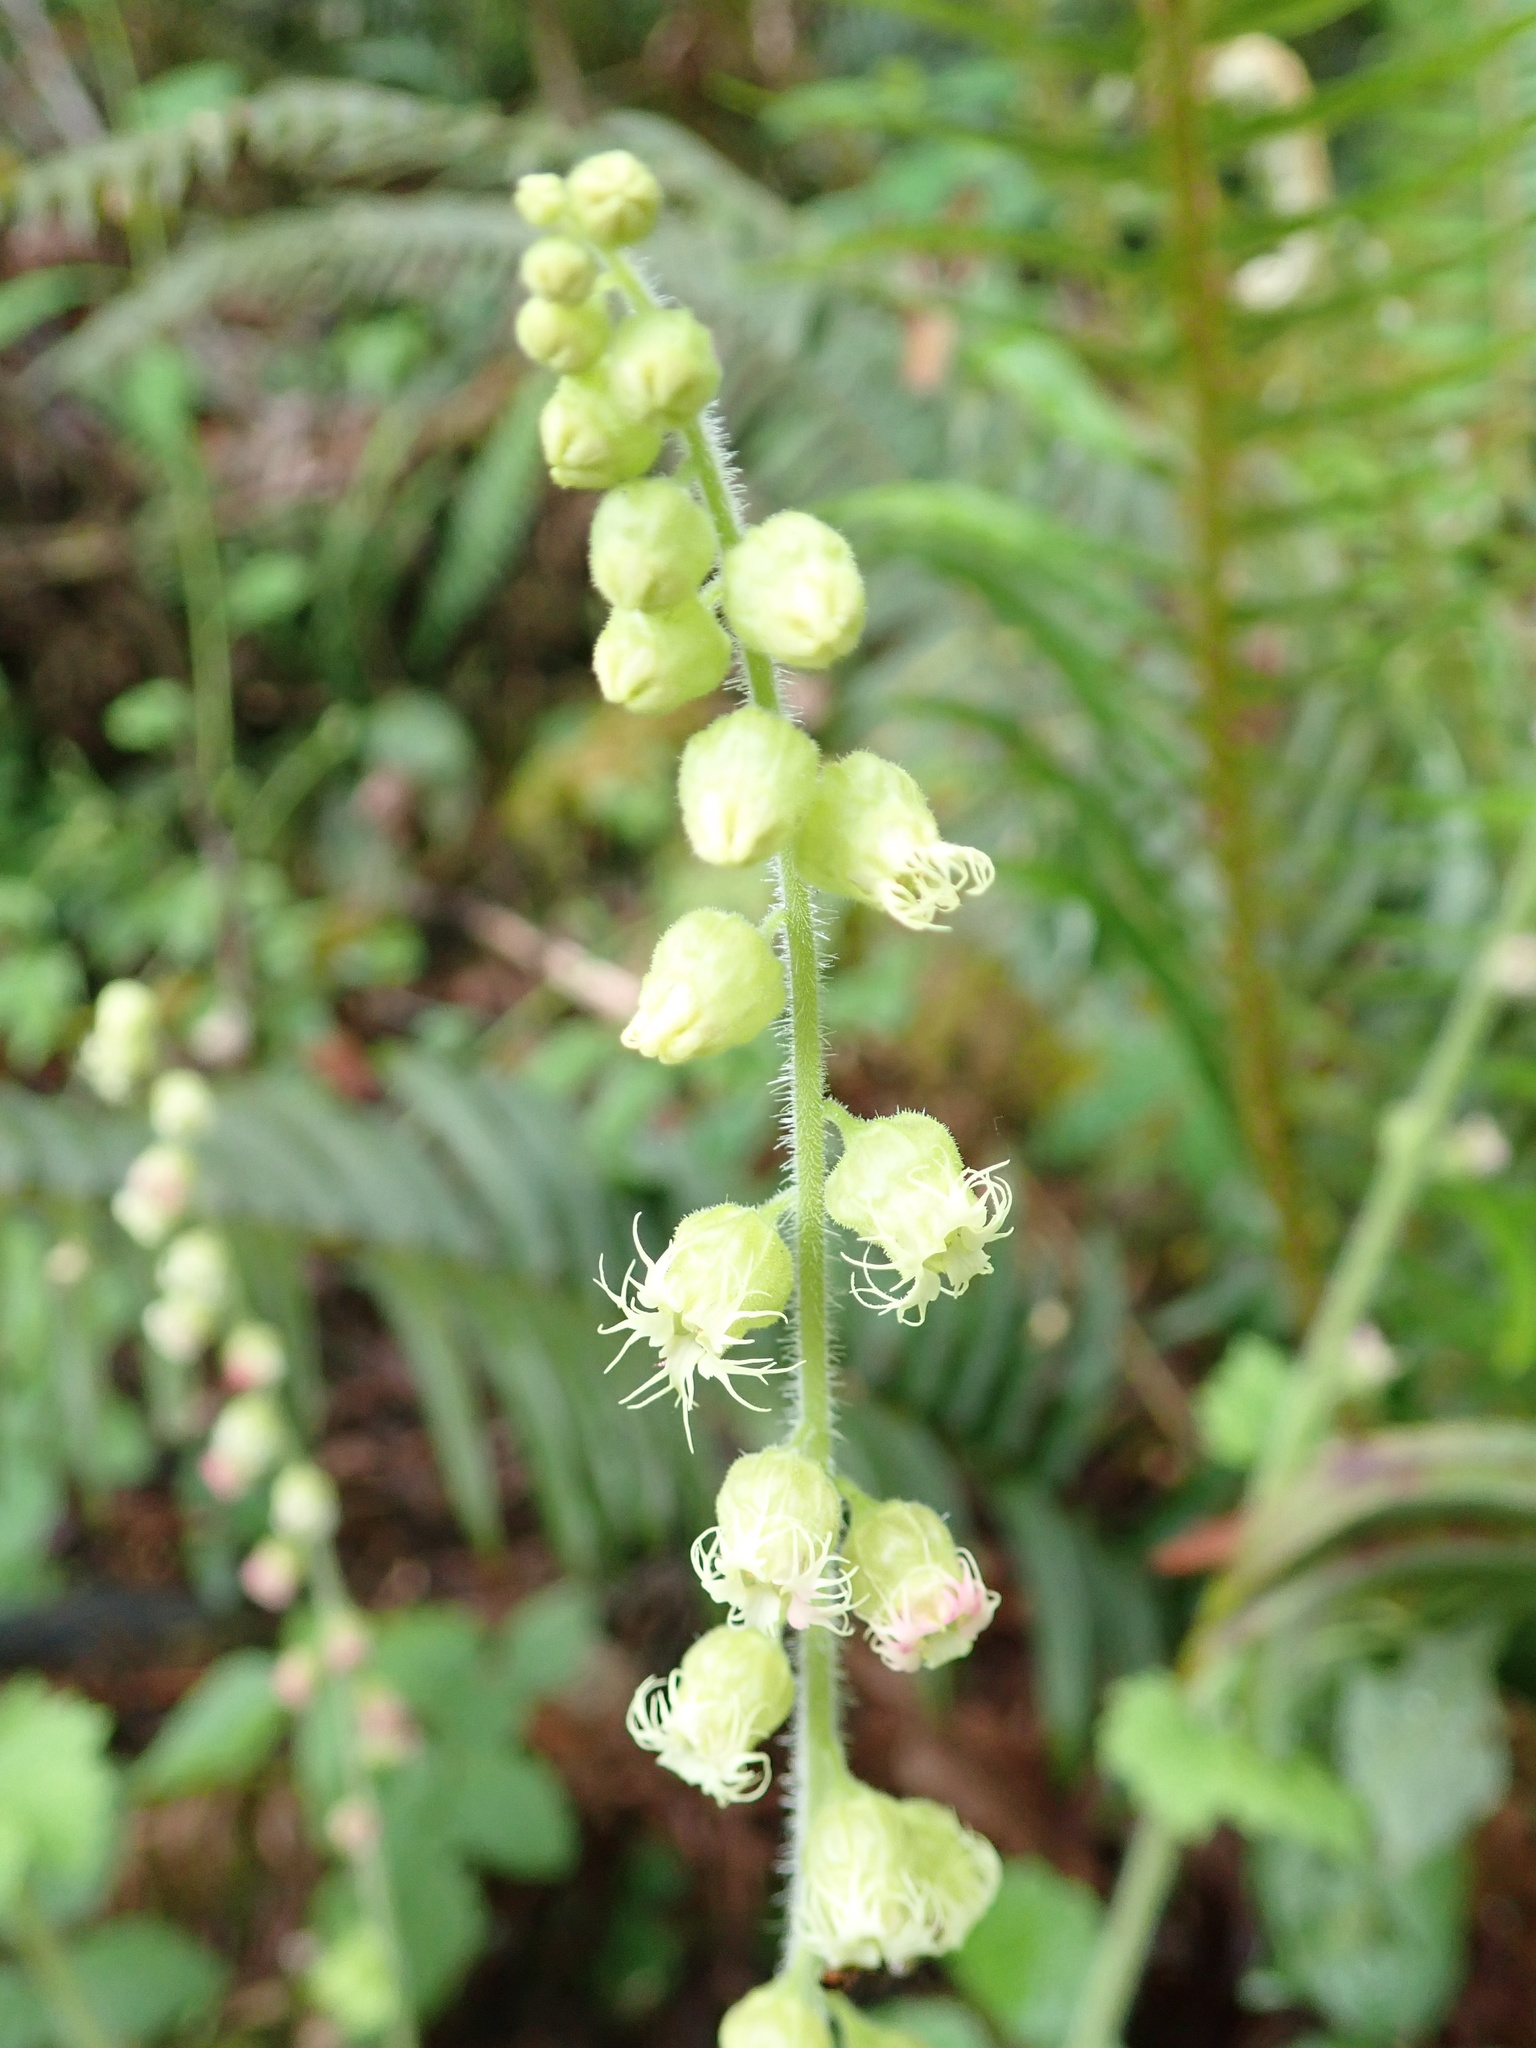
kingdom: Plantae
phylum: Tracheophyta
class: Magnoliopsida
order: Saxifragales
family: Saxifragaceae
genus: Tellima
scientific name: Tellima grandiflora
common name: Fringecups
